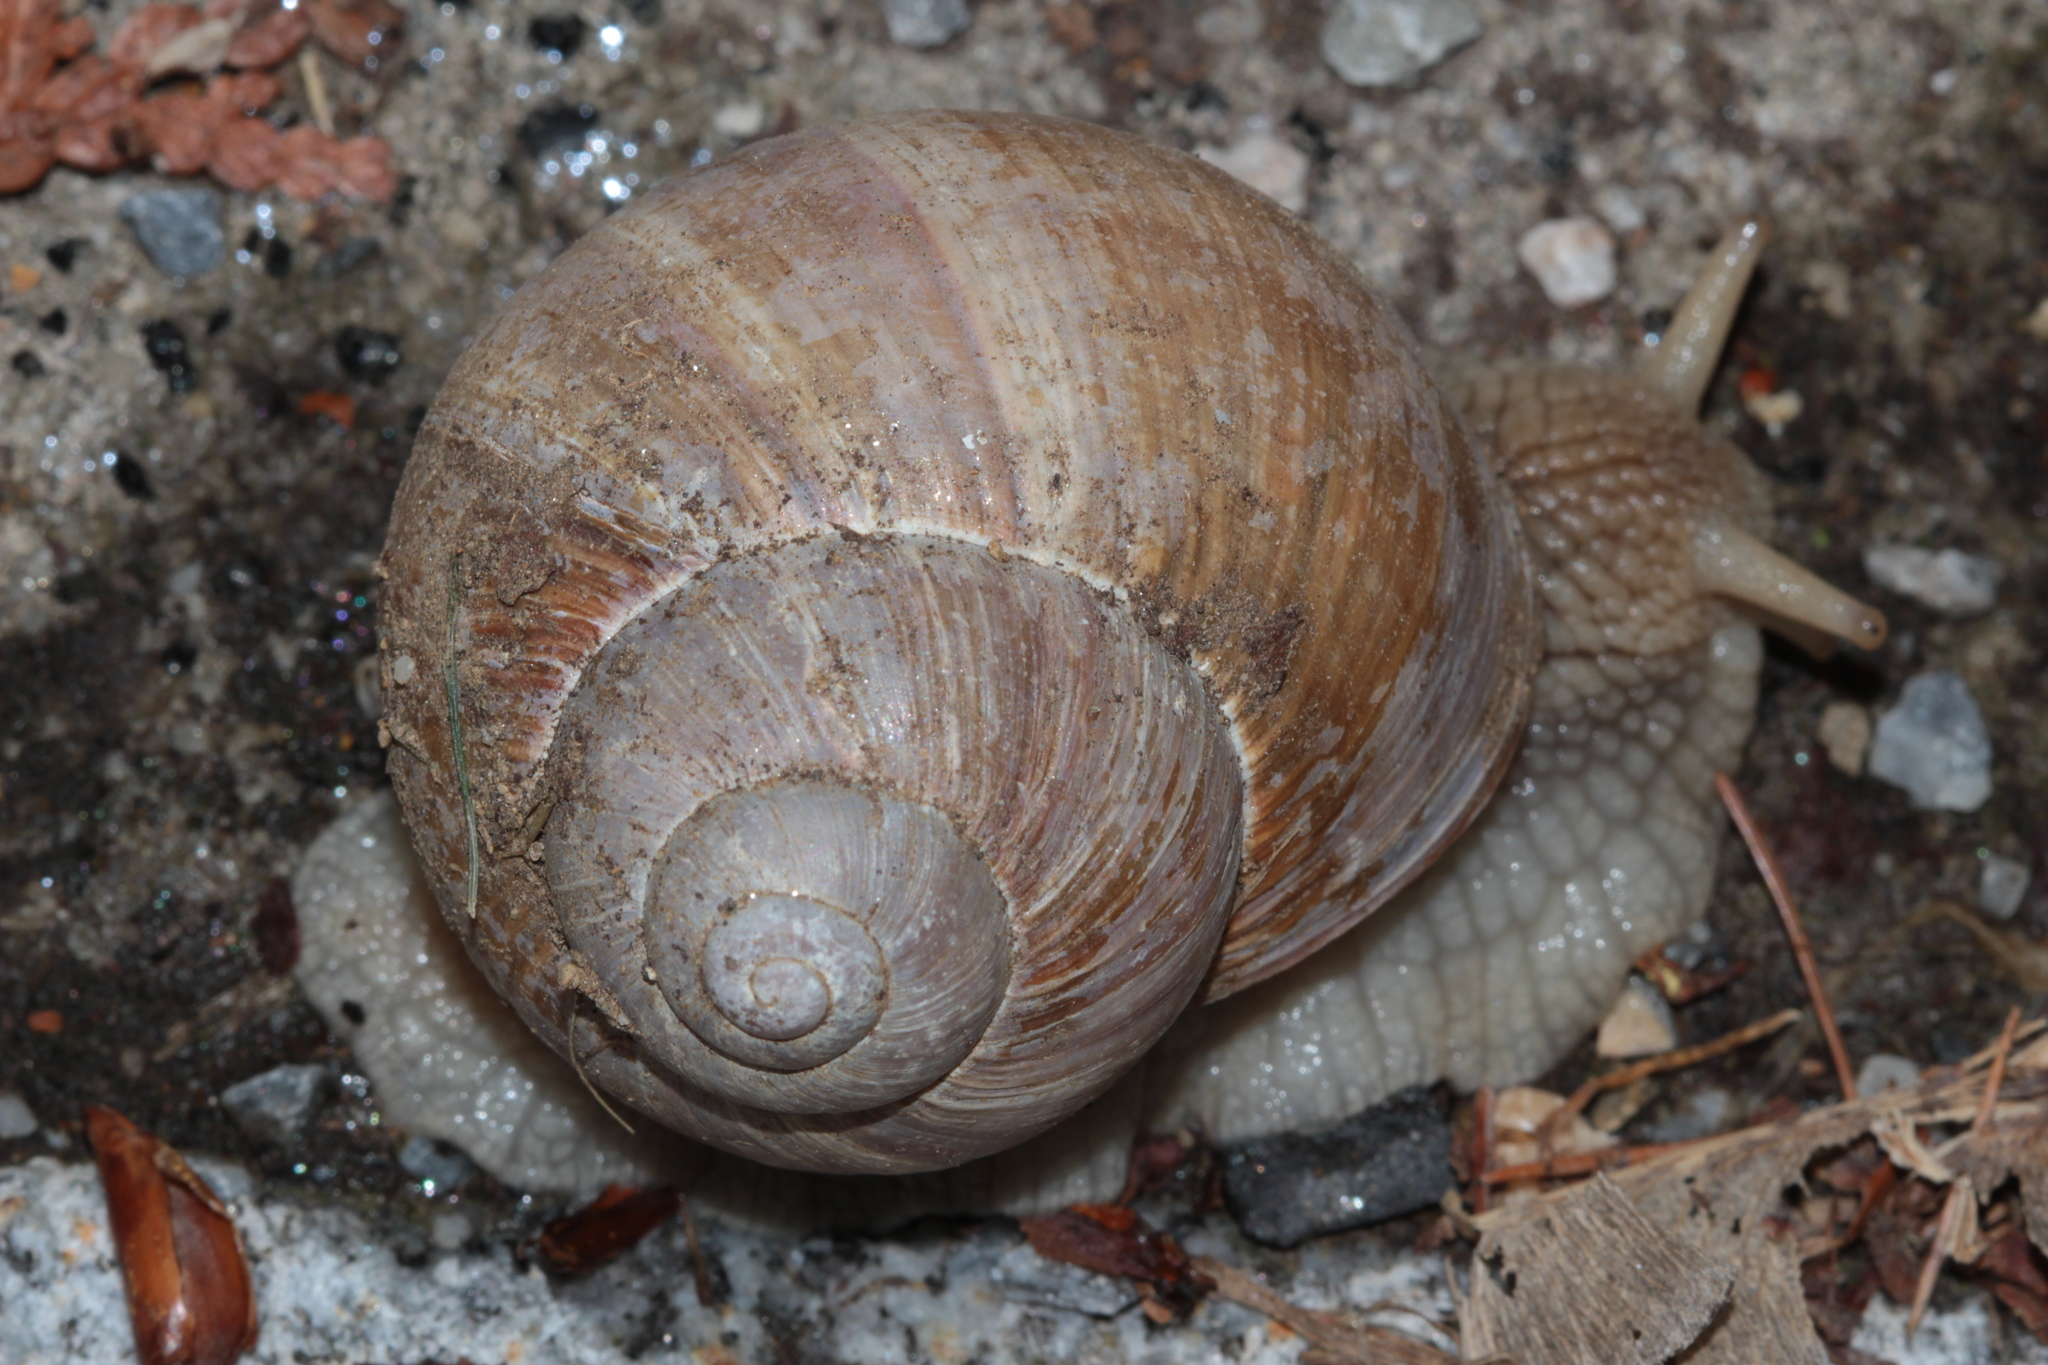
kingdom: Animalia
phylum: Mollusca
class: Gastropoda
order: Stylommatophora
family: Helicidae
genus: Helix
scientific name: Helix pomatia
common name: Roman snail
